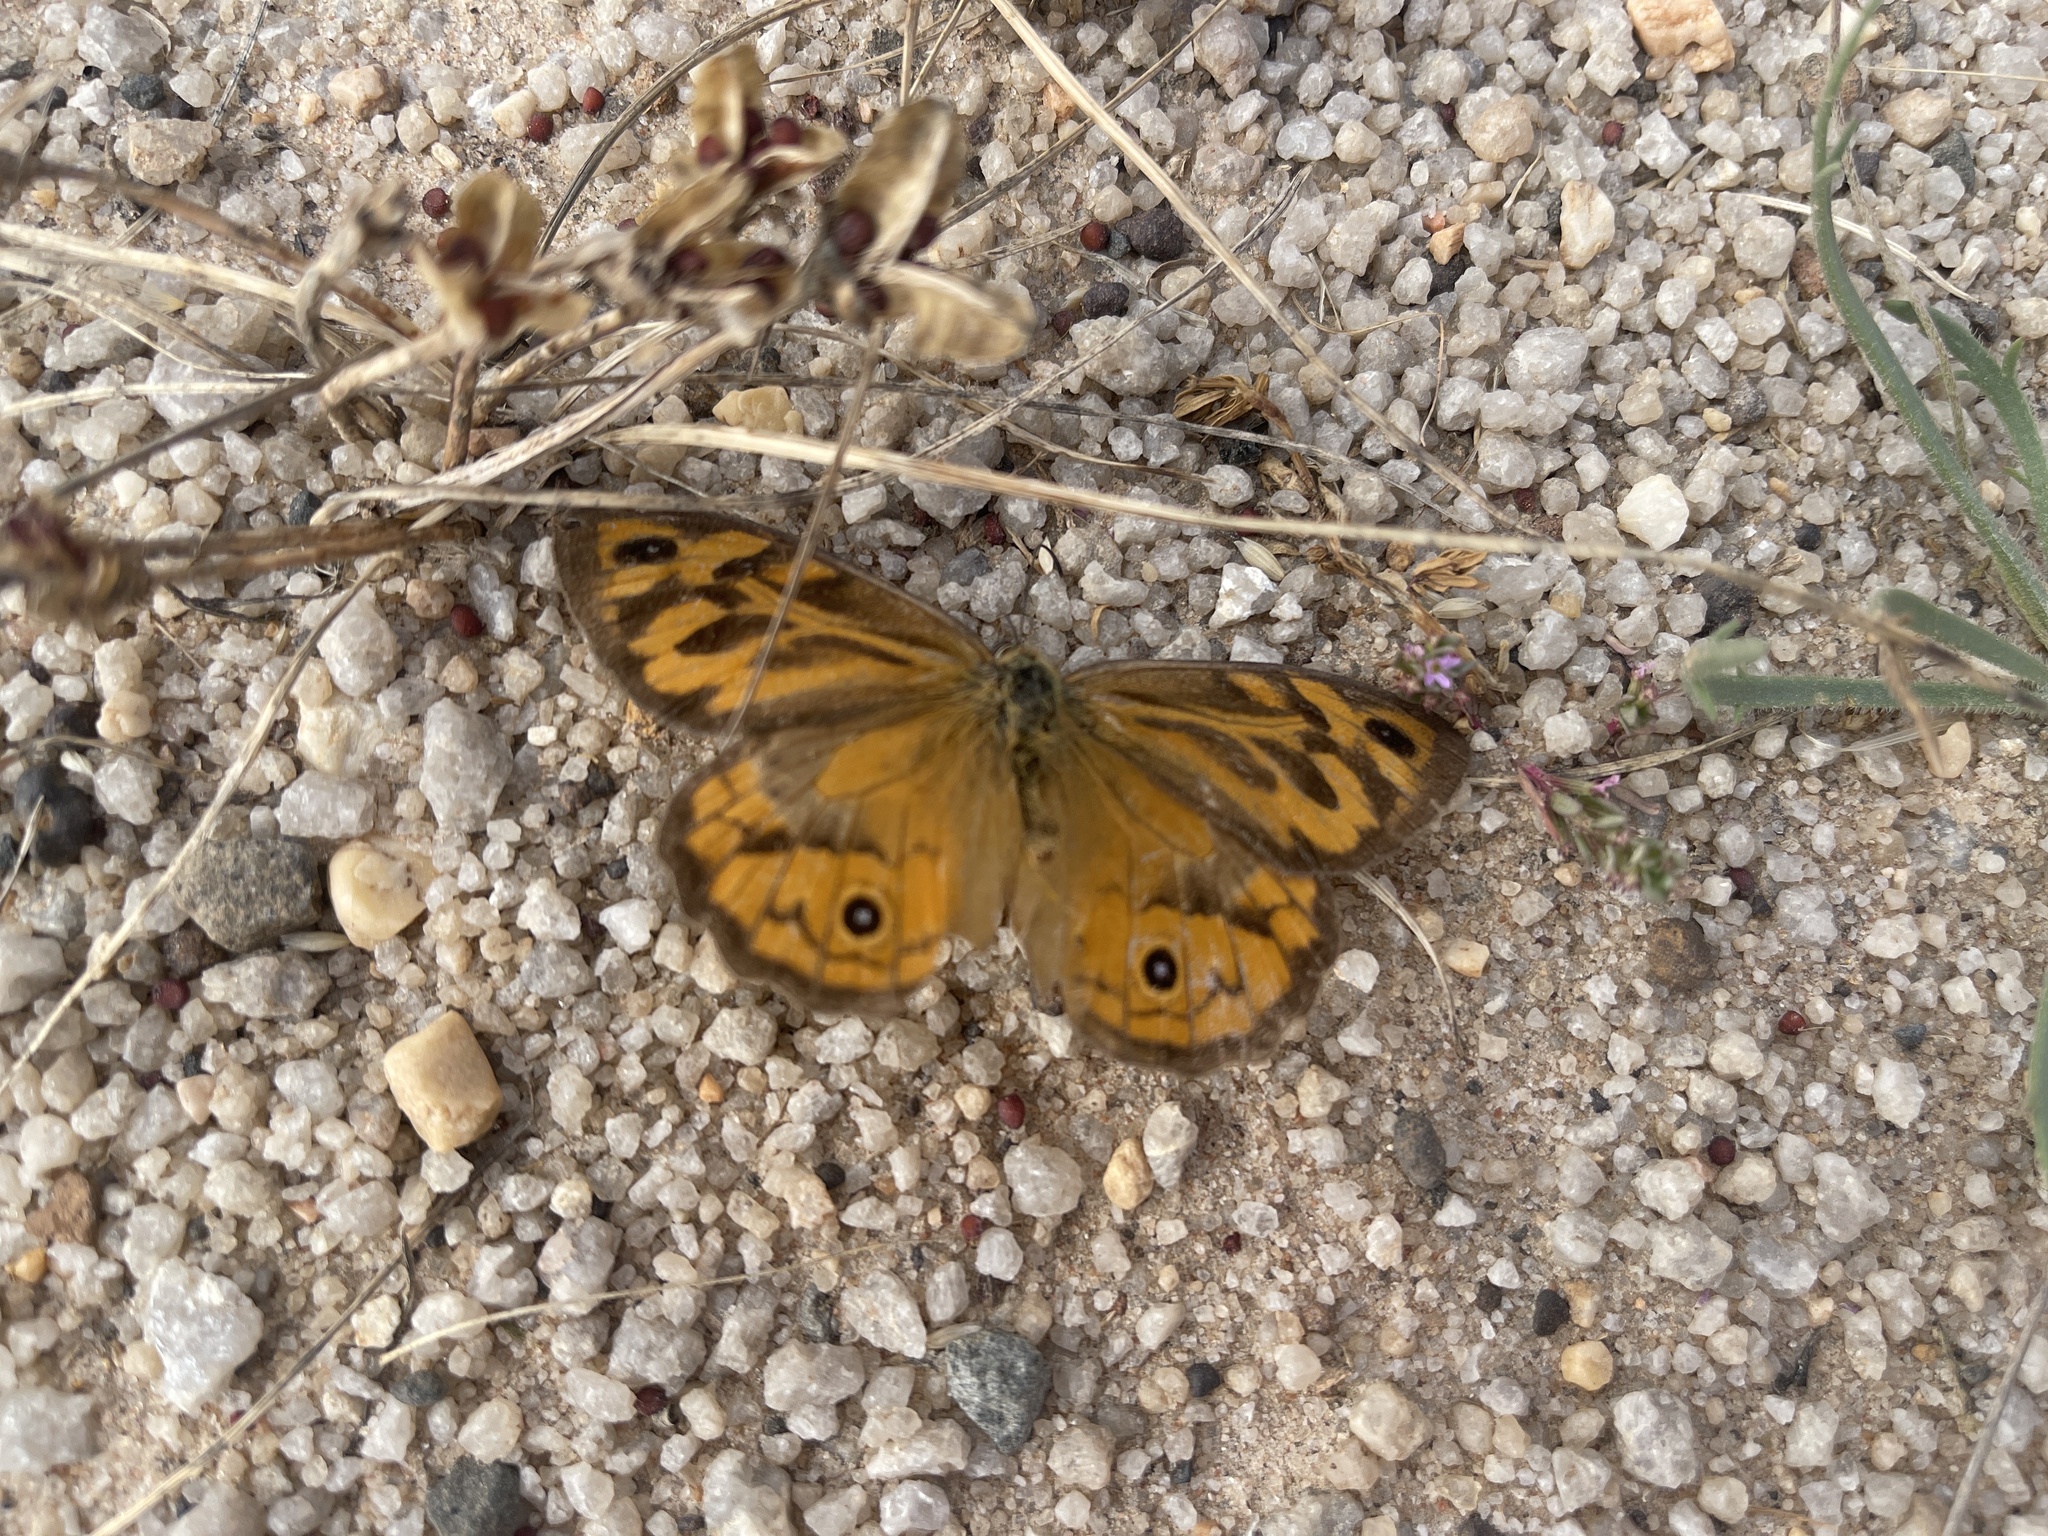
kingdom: Animalia
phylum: Arthropoda
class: Insecta
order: Lepidoptera
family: Nymphalidae
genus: Heteronympha
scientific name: Heteronympha merope
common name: Common brown
